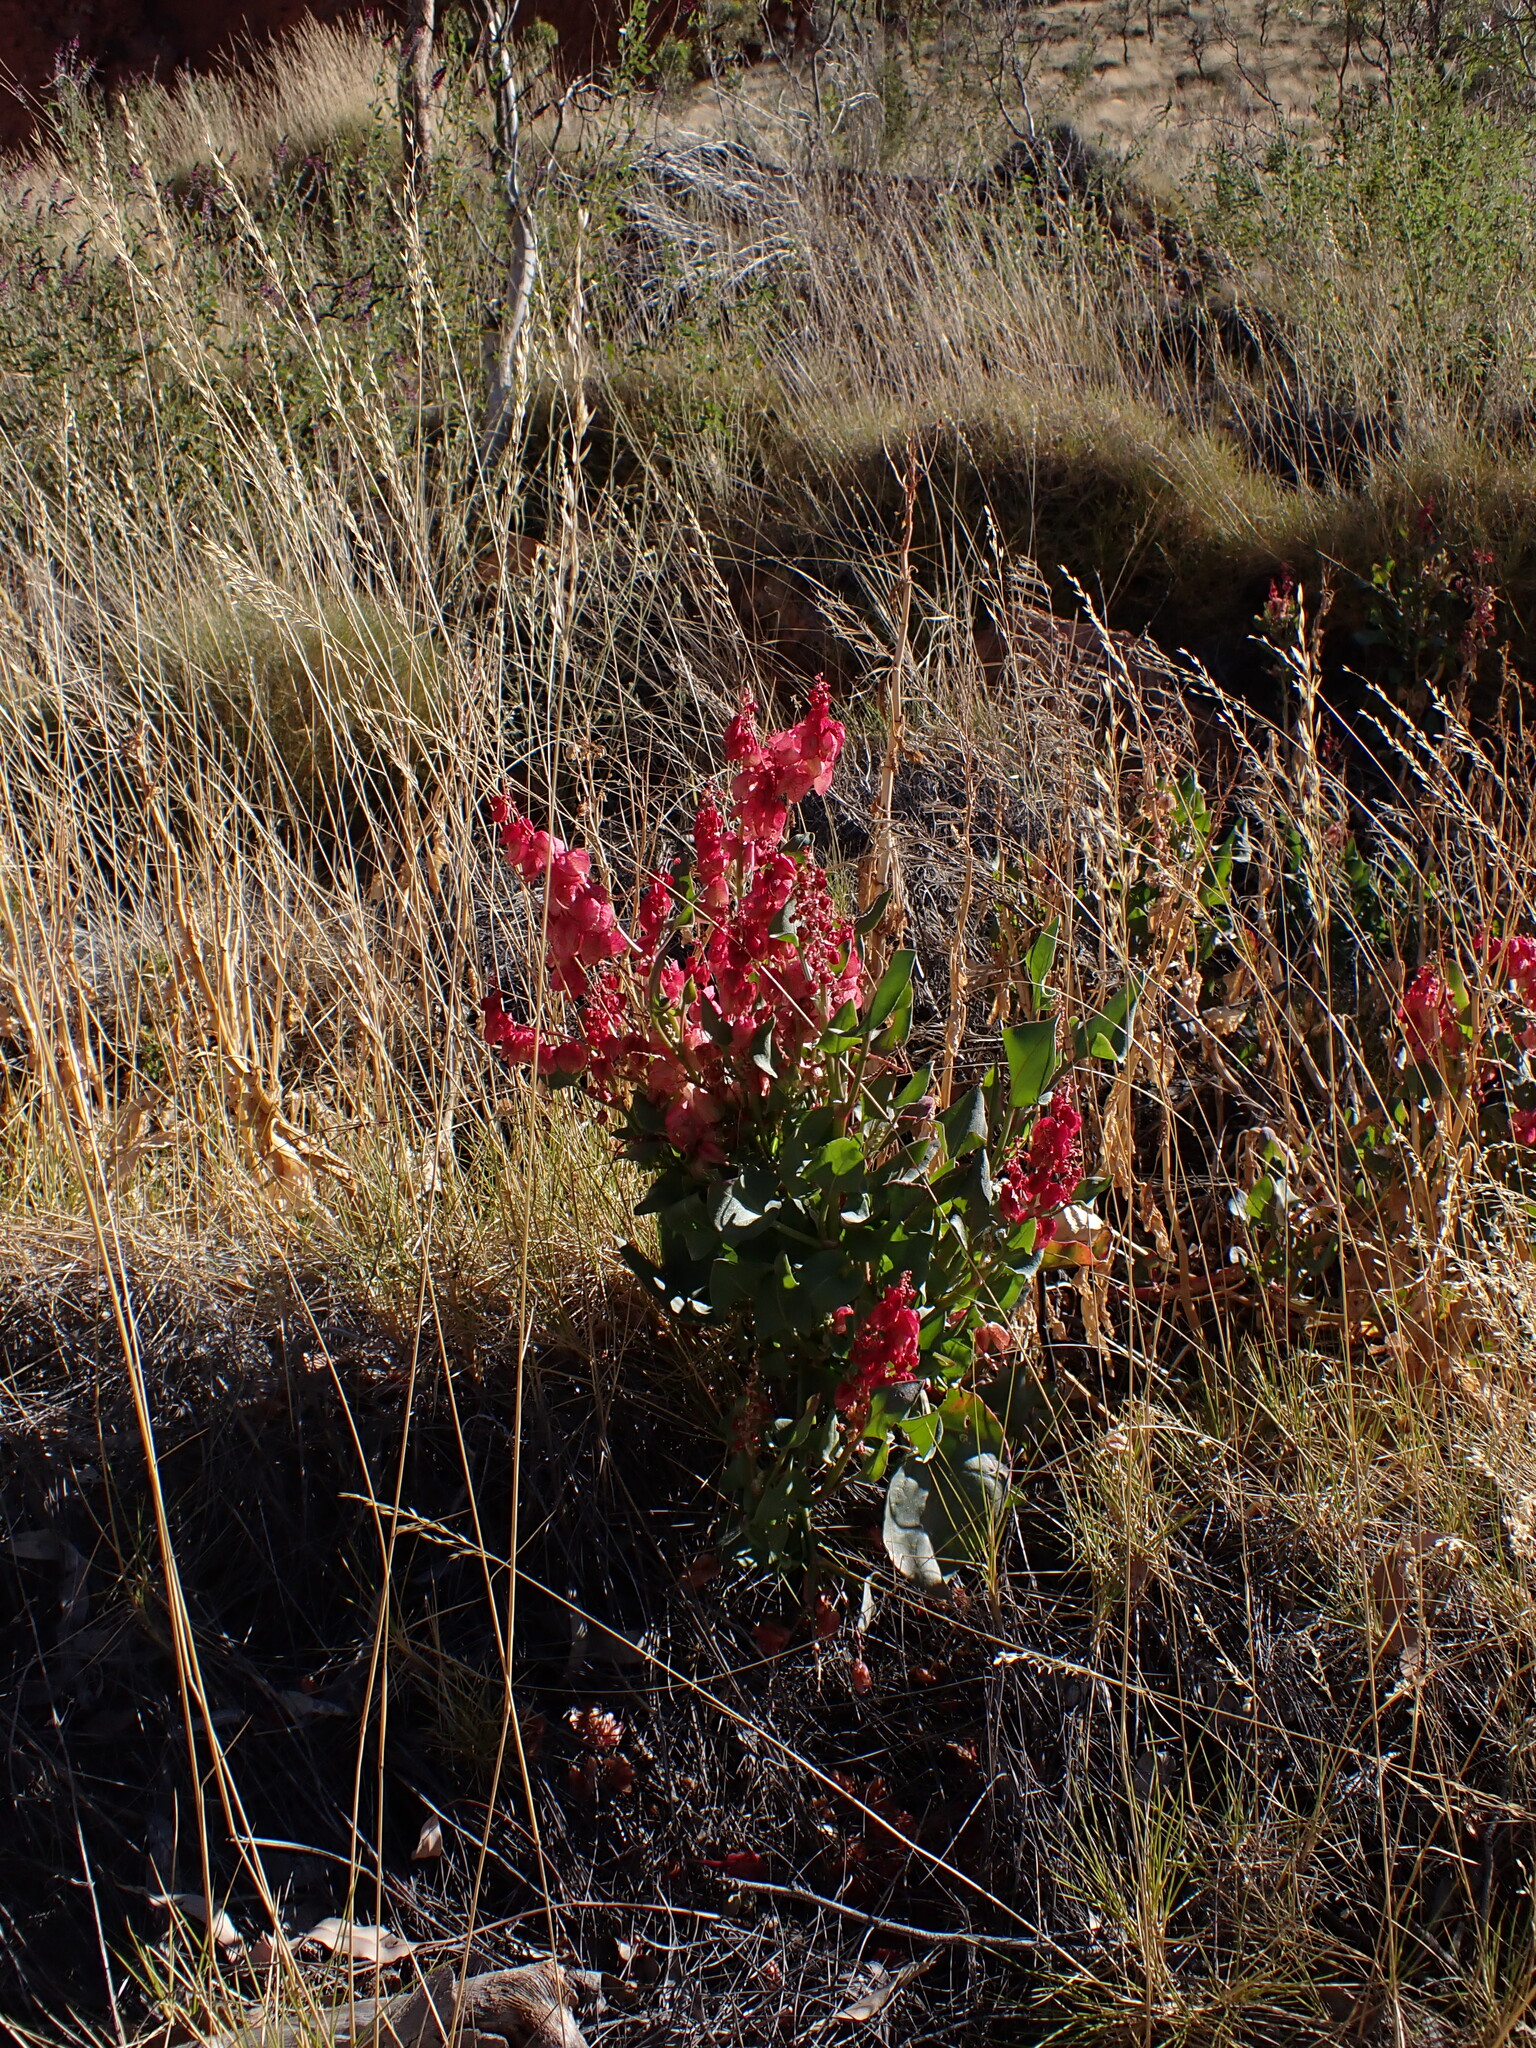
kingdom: Plantae
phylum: Tracheophyta
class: Magnoliopsida
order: Caryophyllales
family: Polygonaceae
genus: Rumex
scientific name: Rumex vesicarius
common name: Bladder dock
